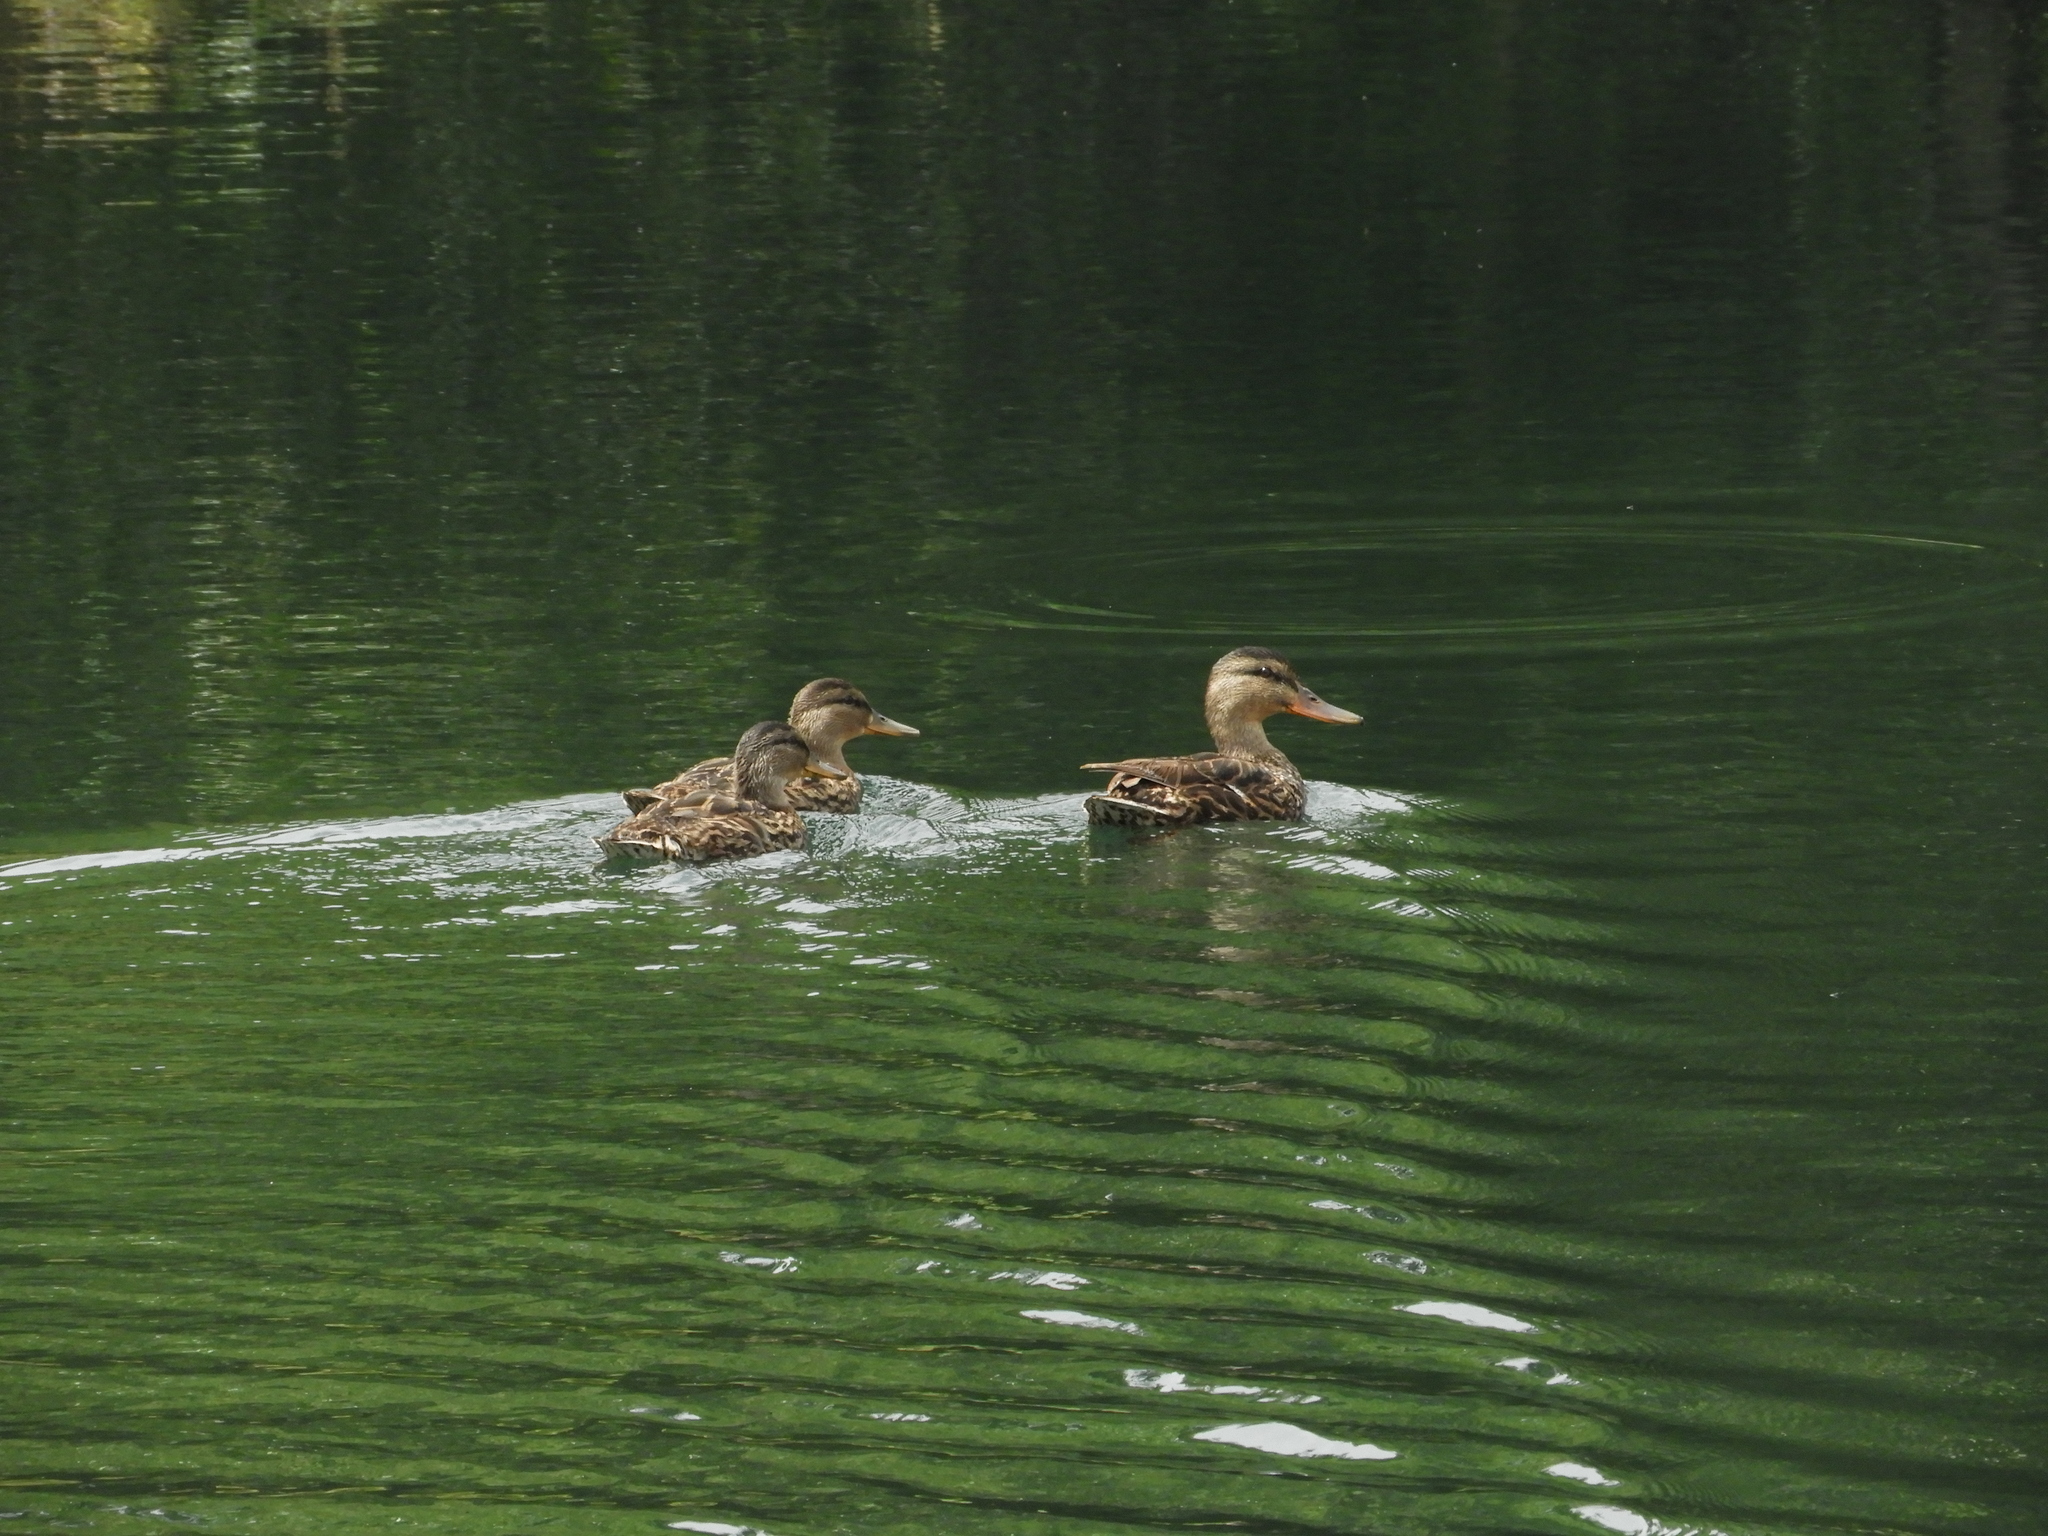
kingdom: Animalia
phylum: Chordata
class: Aves
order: Anseriformes
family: Anatidae
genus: Anas
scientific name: Anas platyrhynchos
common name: Mallard
